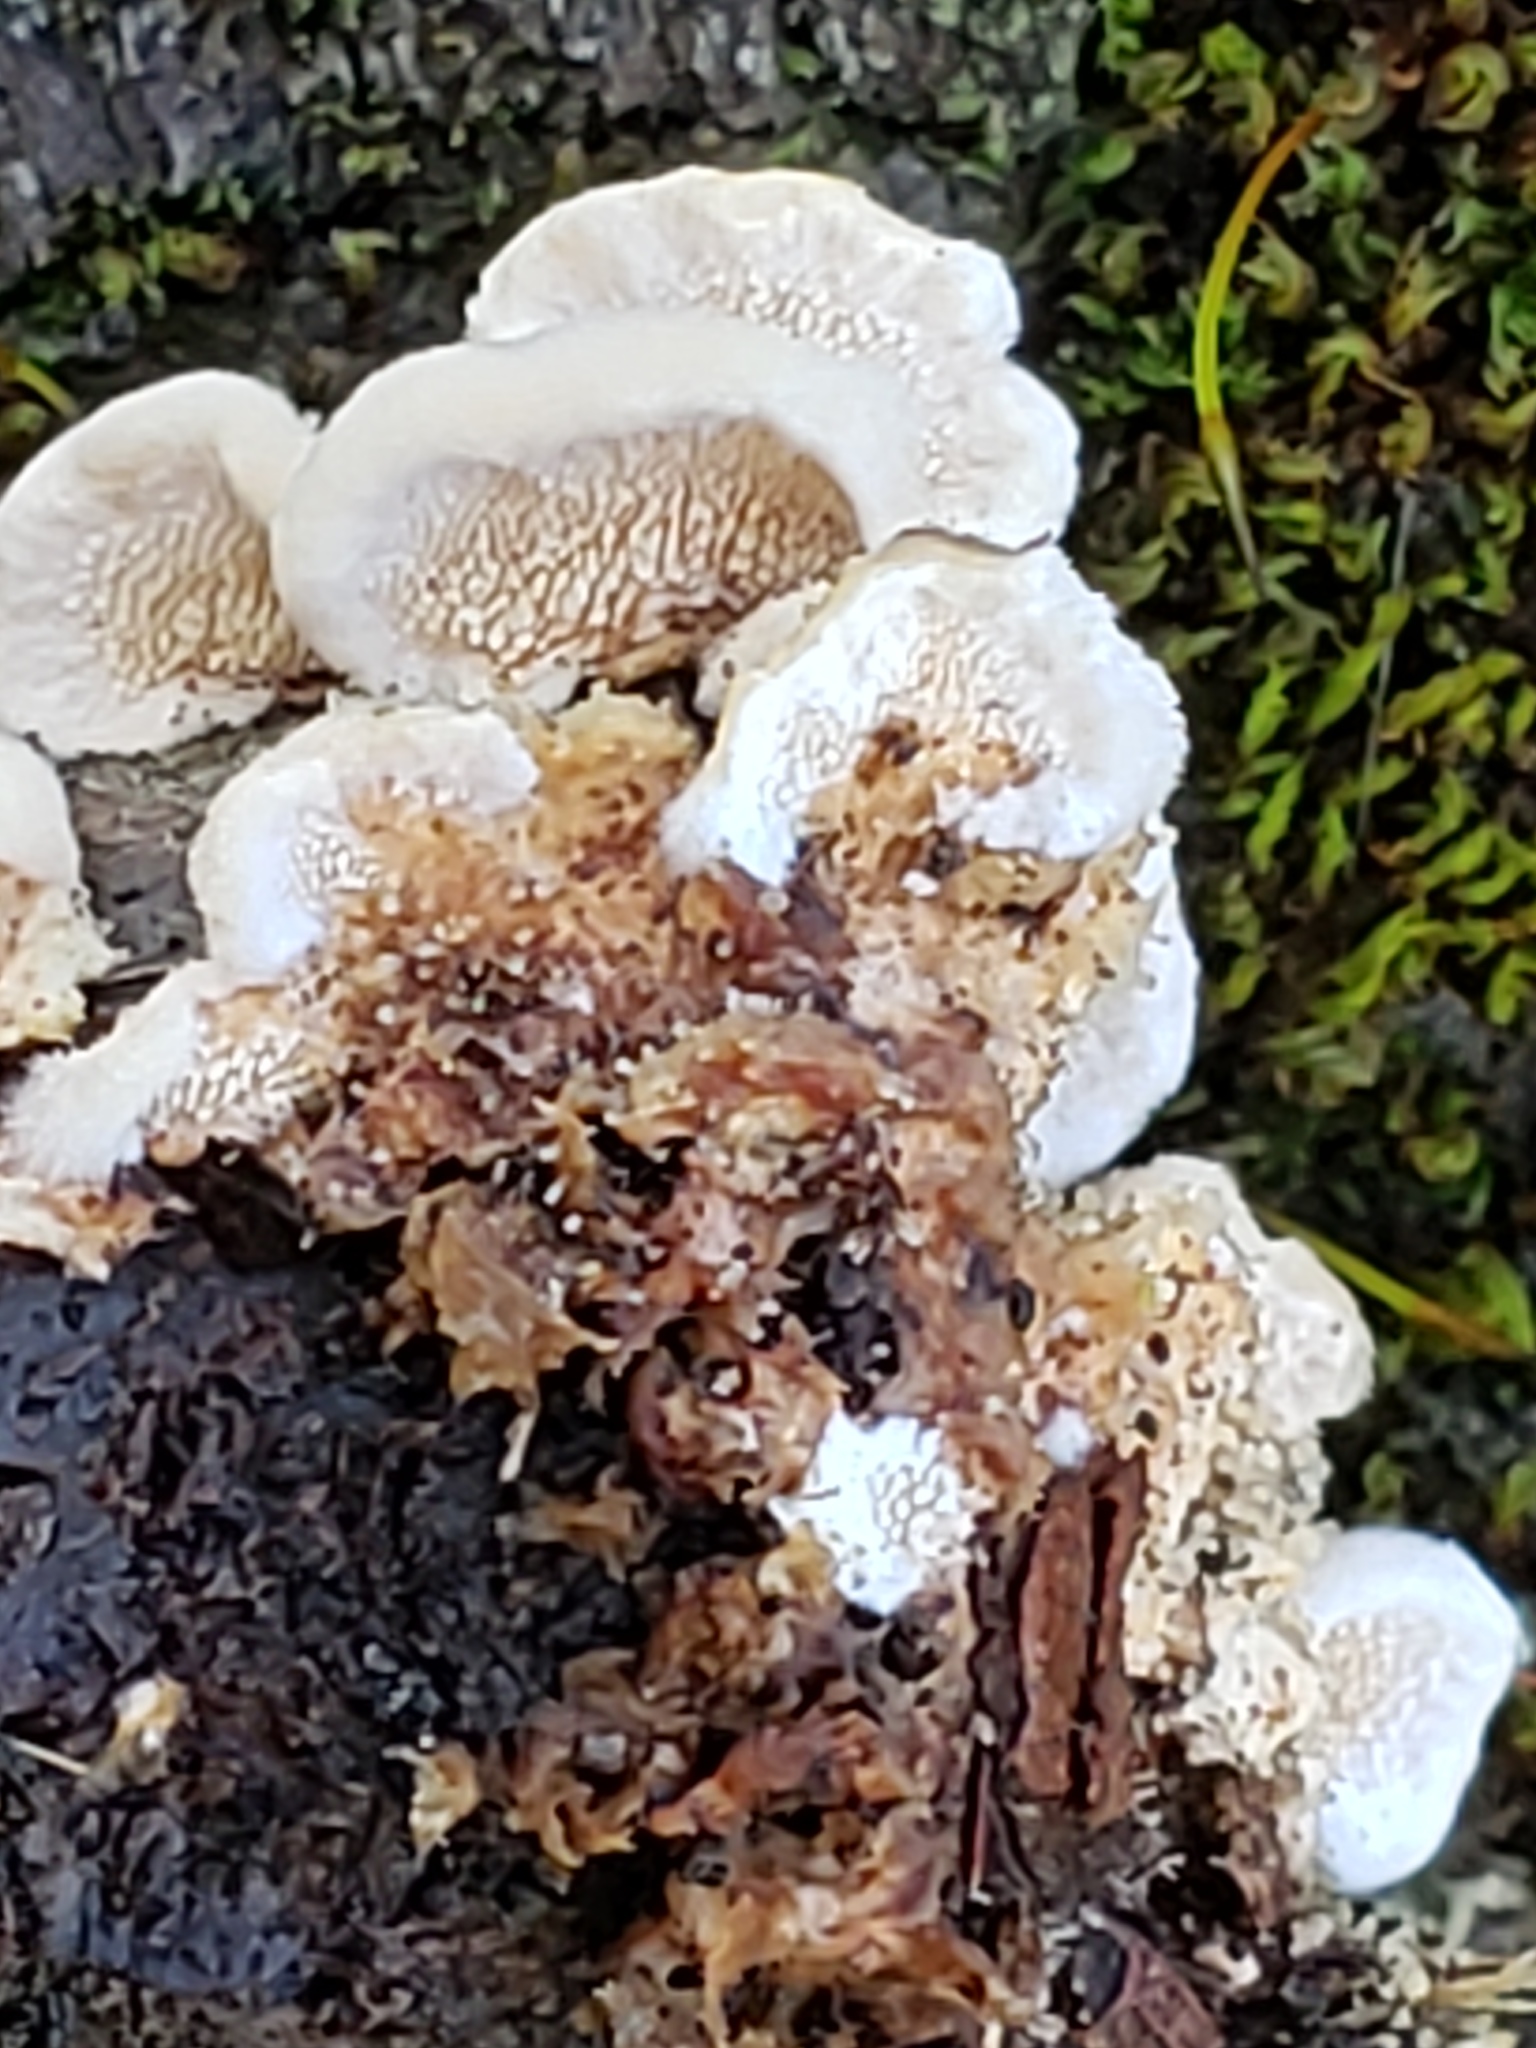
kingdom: Fungi
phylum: Basidiomycota
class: Agaricomycetes
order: Polyporales
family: Steccherinaceae
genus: Steccherinum
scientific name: Steccherinum ochraceum
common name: Ochre spreading tooth
